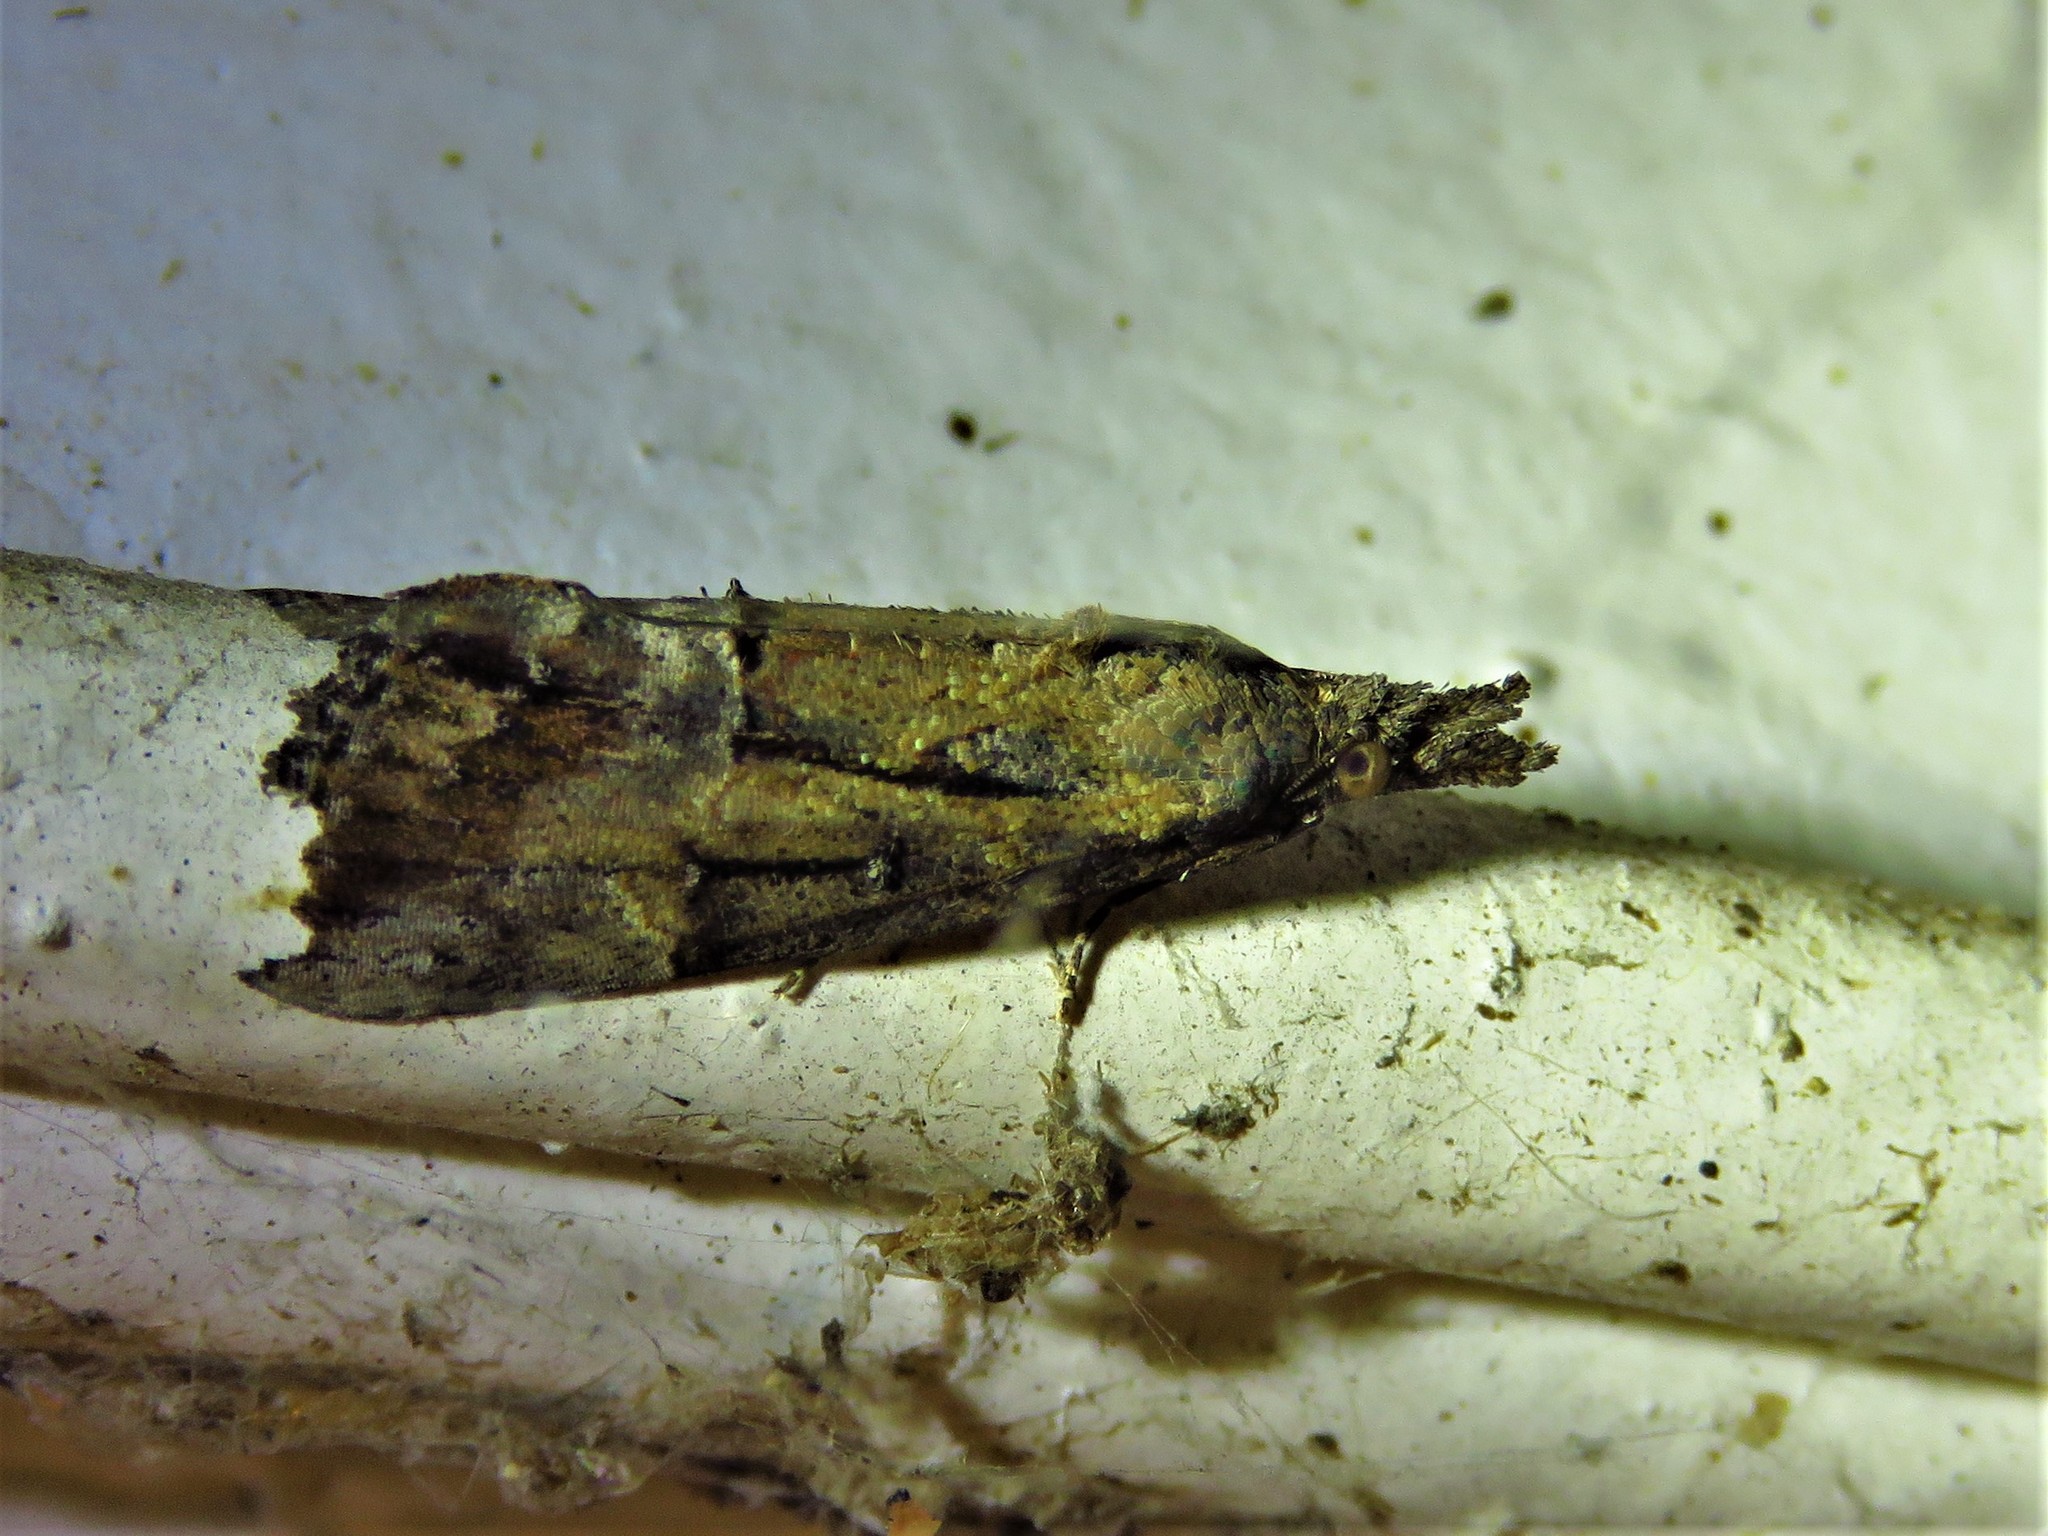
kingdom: Animalia
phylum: Arthropoda
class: Insecta
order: Lepidoptera
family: Erebidae
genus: Hypena
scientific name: Hypena scabra
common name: Green cloverworm
